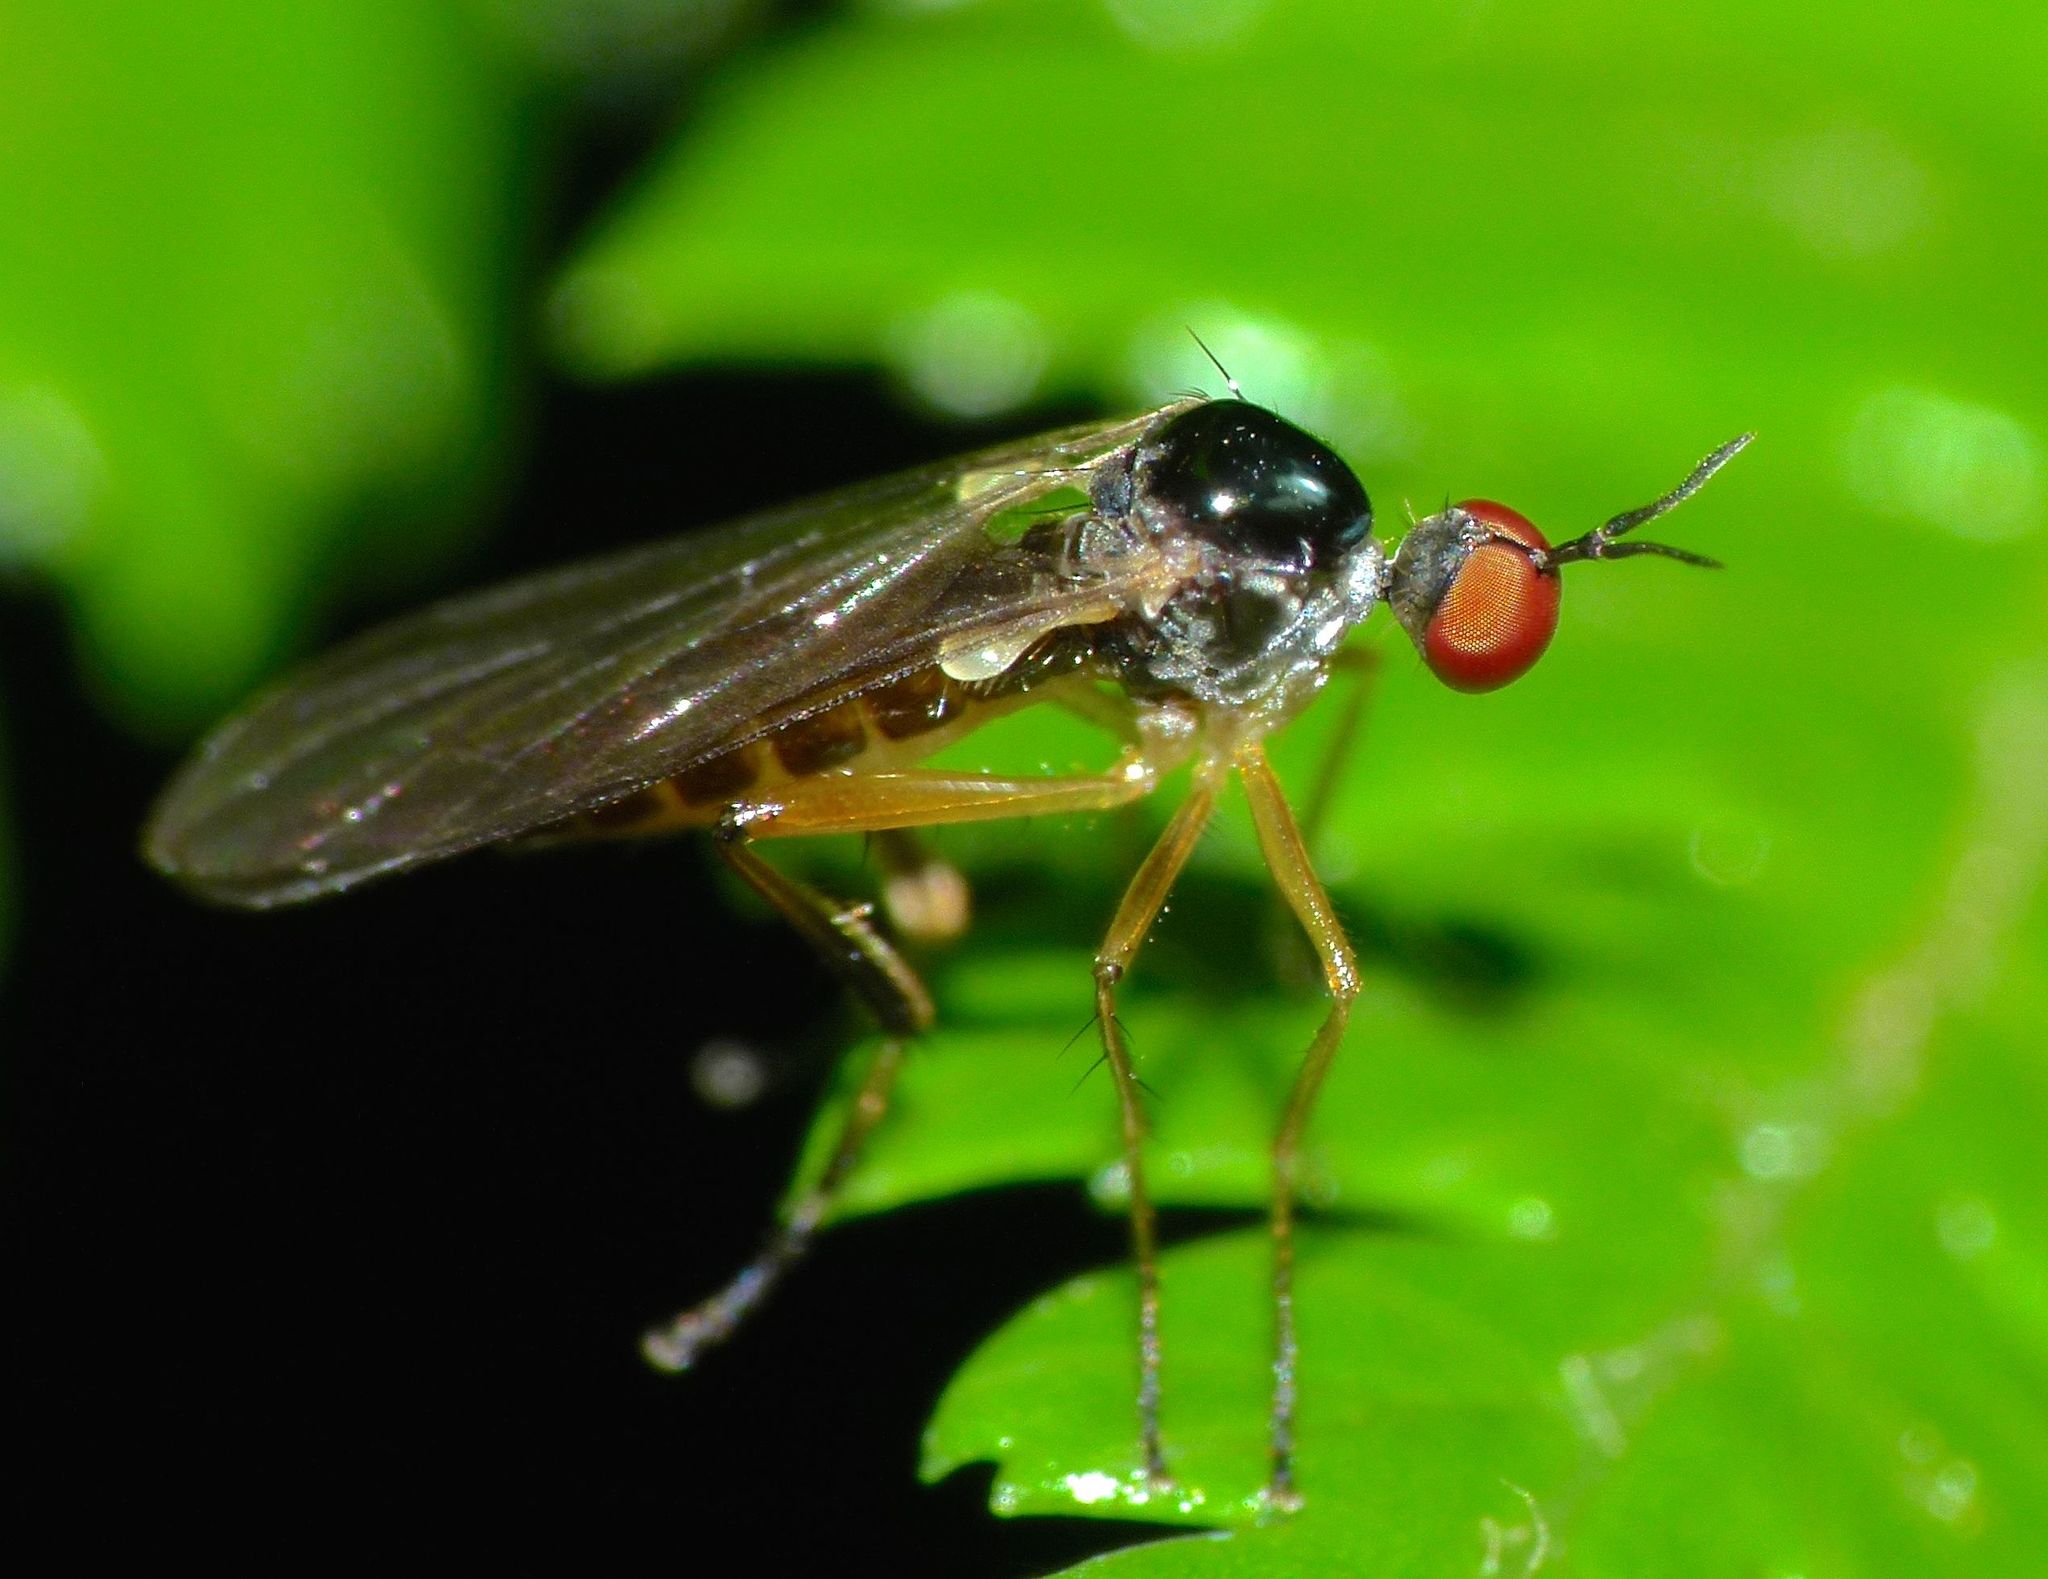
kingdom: Animalia
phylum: Arthropoda
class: Insecta
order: Diptera
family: Hybotidae
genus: Oropezella
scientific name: Oropezella tanycera
